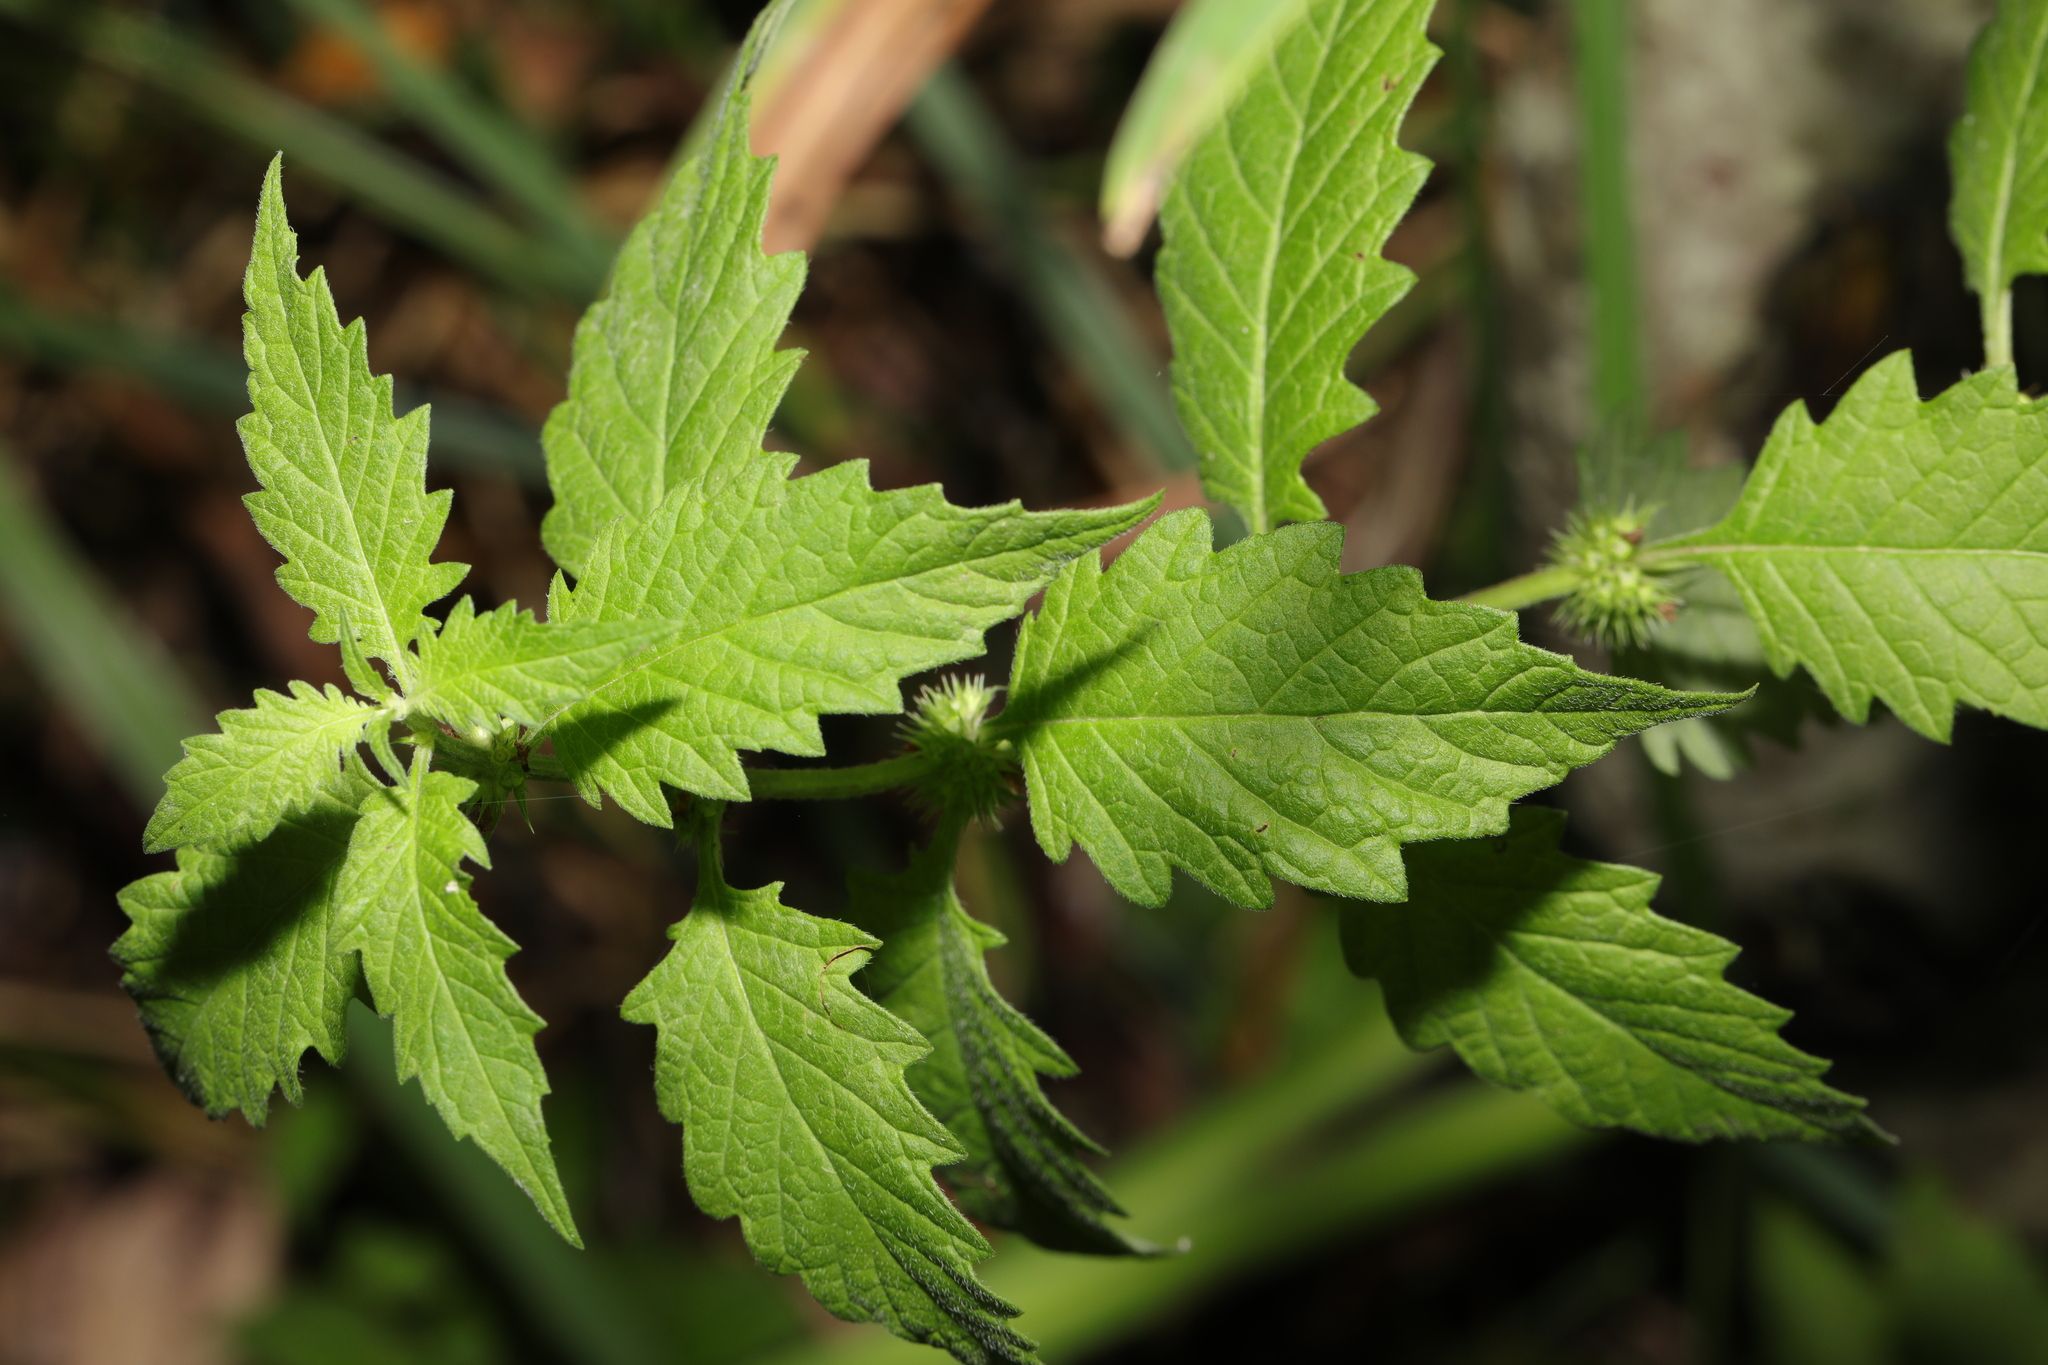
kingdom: Plantae
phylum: Tracheophyta
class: Magnoliopsida
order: Lamiales
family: Lamiaceae
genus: Lycopus
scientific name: Lycopus europaeus
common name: European bugleweed
